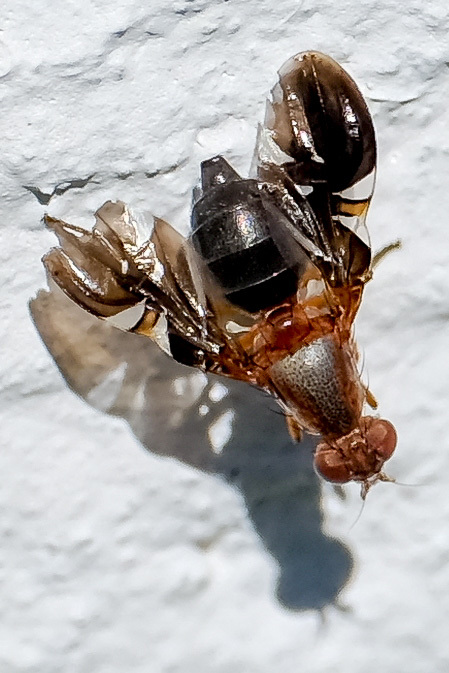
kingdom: Animalia
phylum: Arthropoda
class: Insecta
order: Diptera
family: Ulidiidae
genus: Delphinia
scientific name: Delphinia picta
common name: Common picture-winged fly
